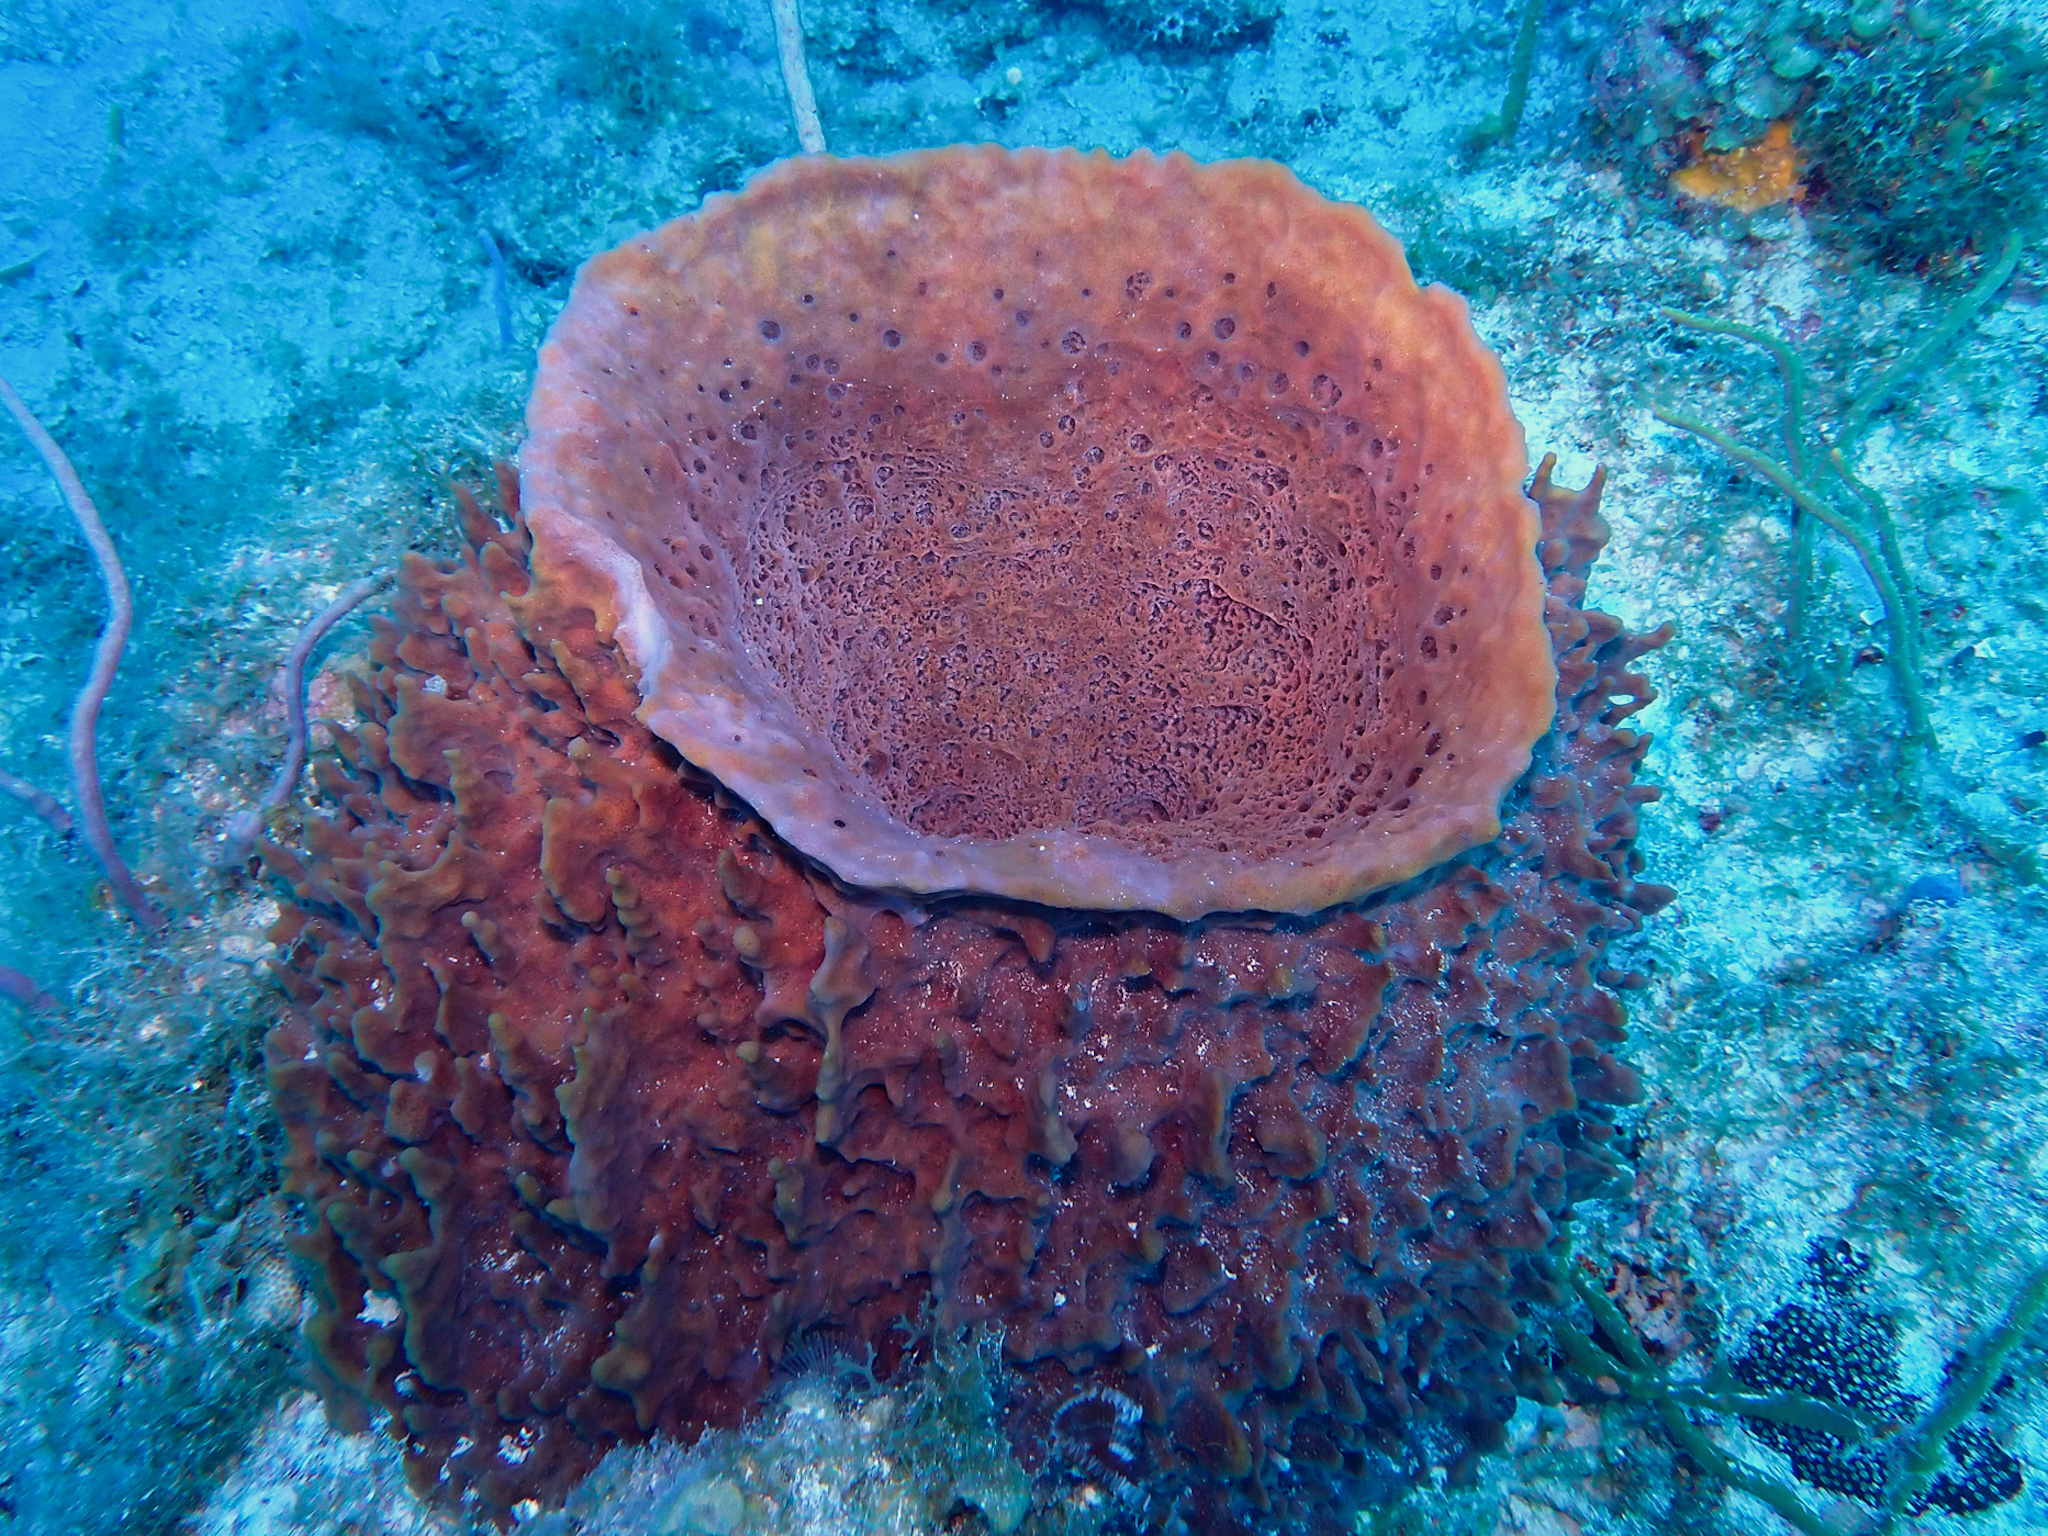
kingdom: Animalia
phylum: Porifera
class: Demospongiae
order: Haplosclerida
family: Petrosiidae
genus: Xestospongia
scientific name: Xestospongia muta
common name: Giant barrel sponge
